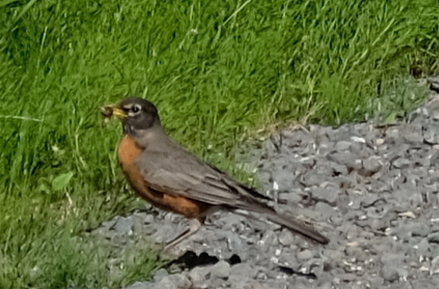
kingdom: Animalia
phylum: Chordata
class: Aves
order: Passeriformes
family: Turdidae
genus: Turdus
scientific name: Turdus migratorius
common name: American robin
